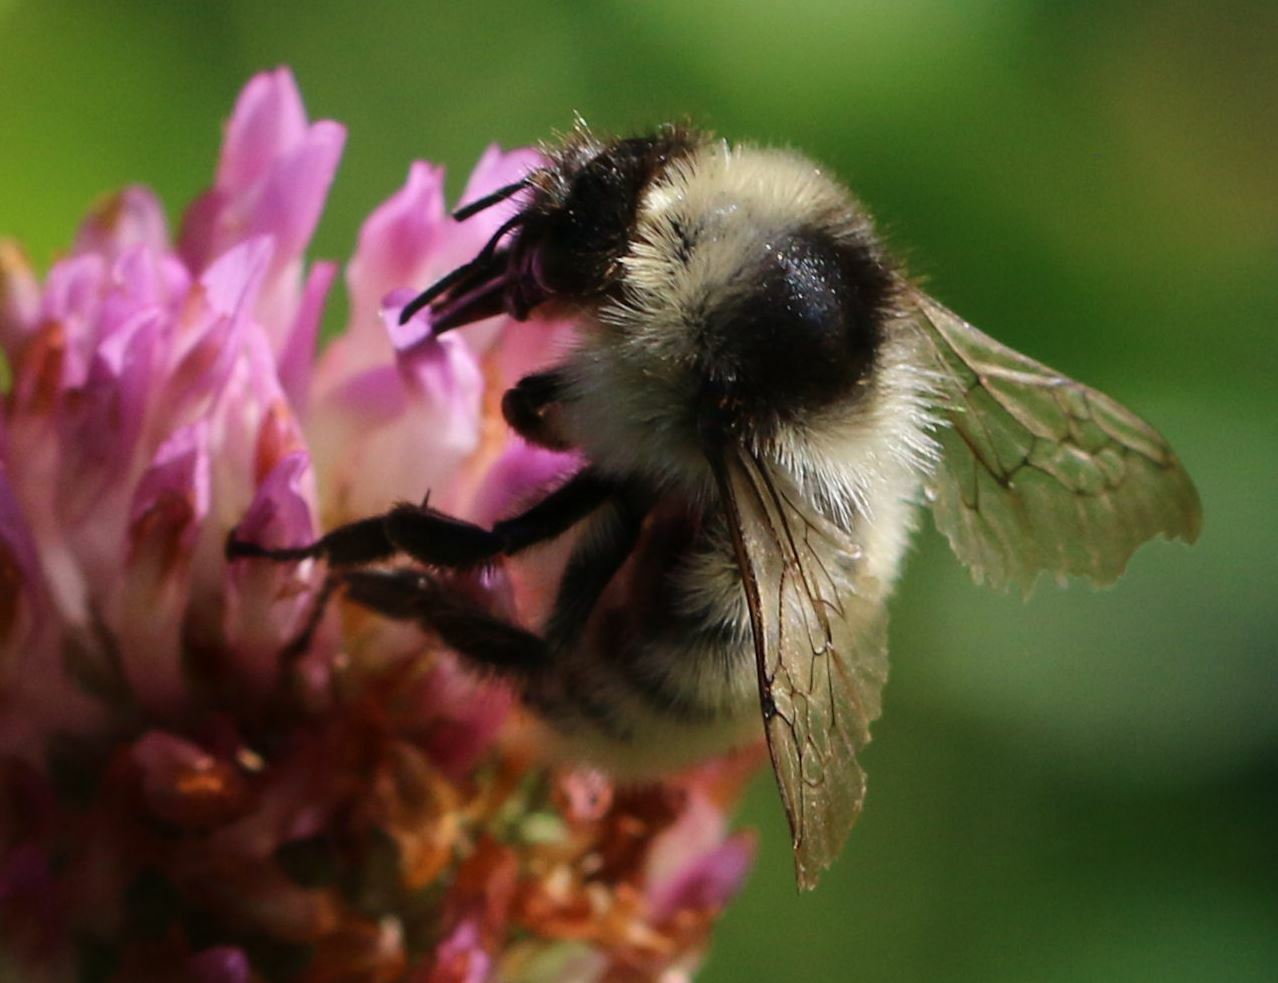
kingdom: Animalia
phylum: Arthropoda
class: Insecta
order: Hymenoptera
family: Apidae
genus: Bombus
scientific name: Bombus mesomelas
